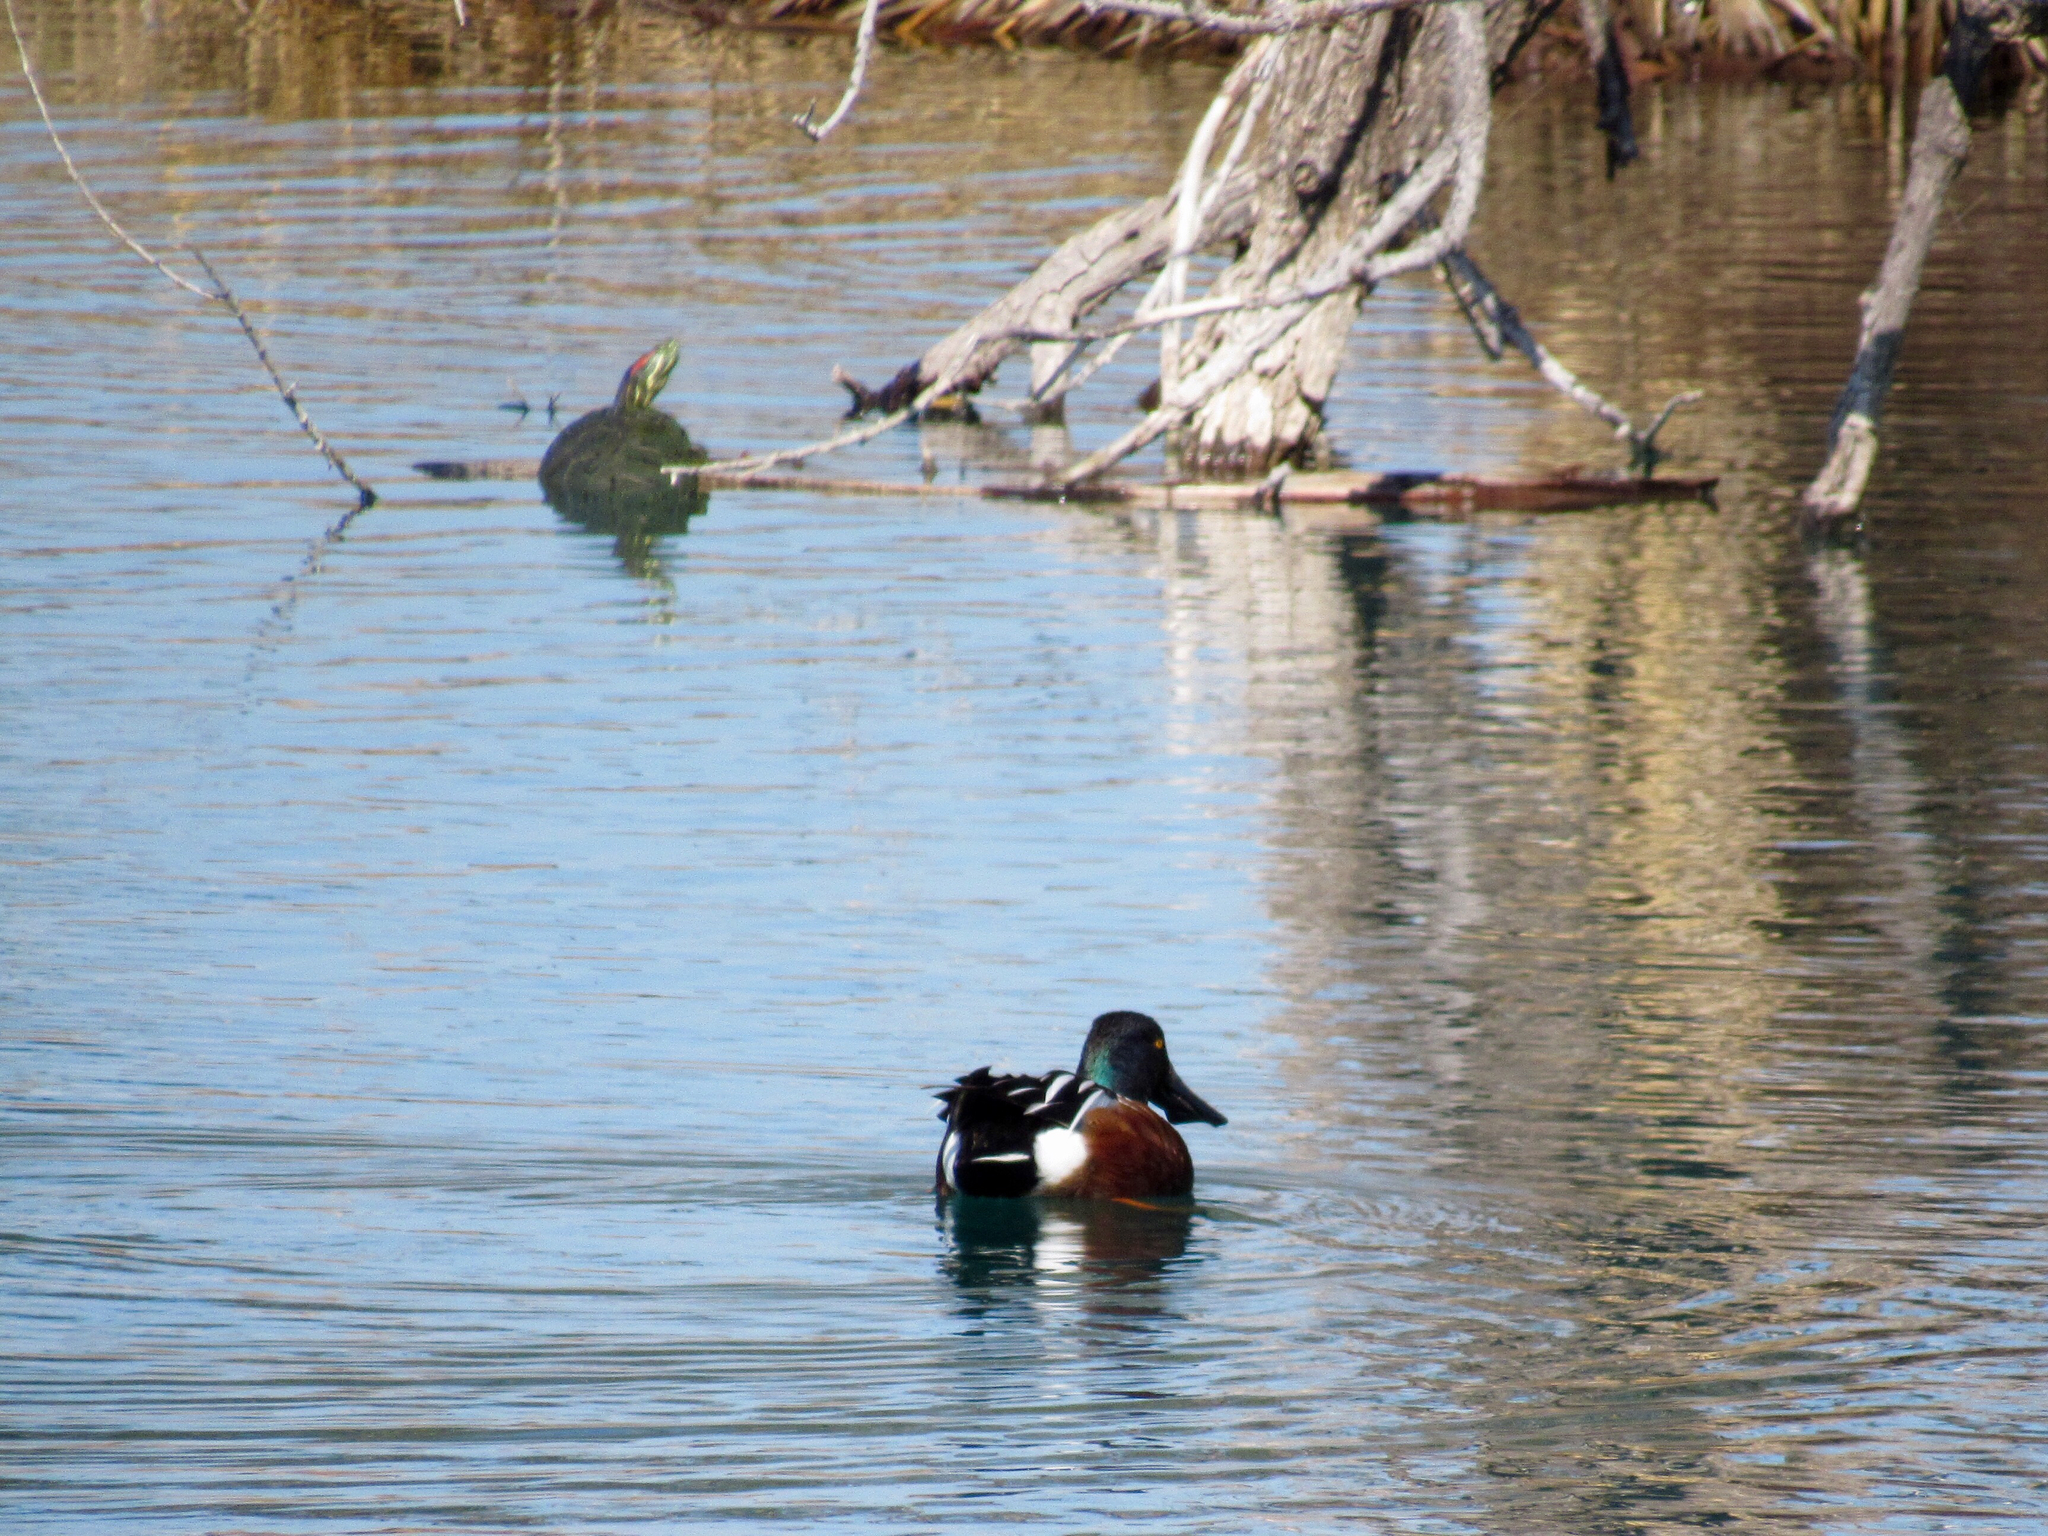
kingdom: Animalia
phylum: Chordata
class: Aves
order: Anseriformes
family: Anatidae
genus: Spatula
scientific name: Spatula clypeata
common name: Northern shoveler
